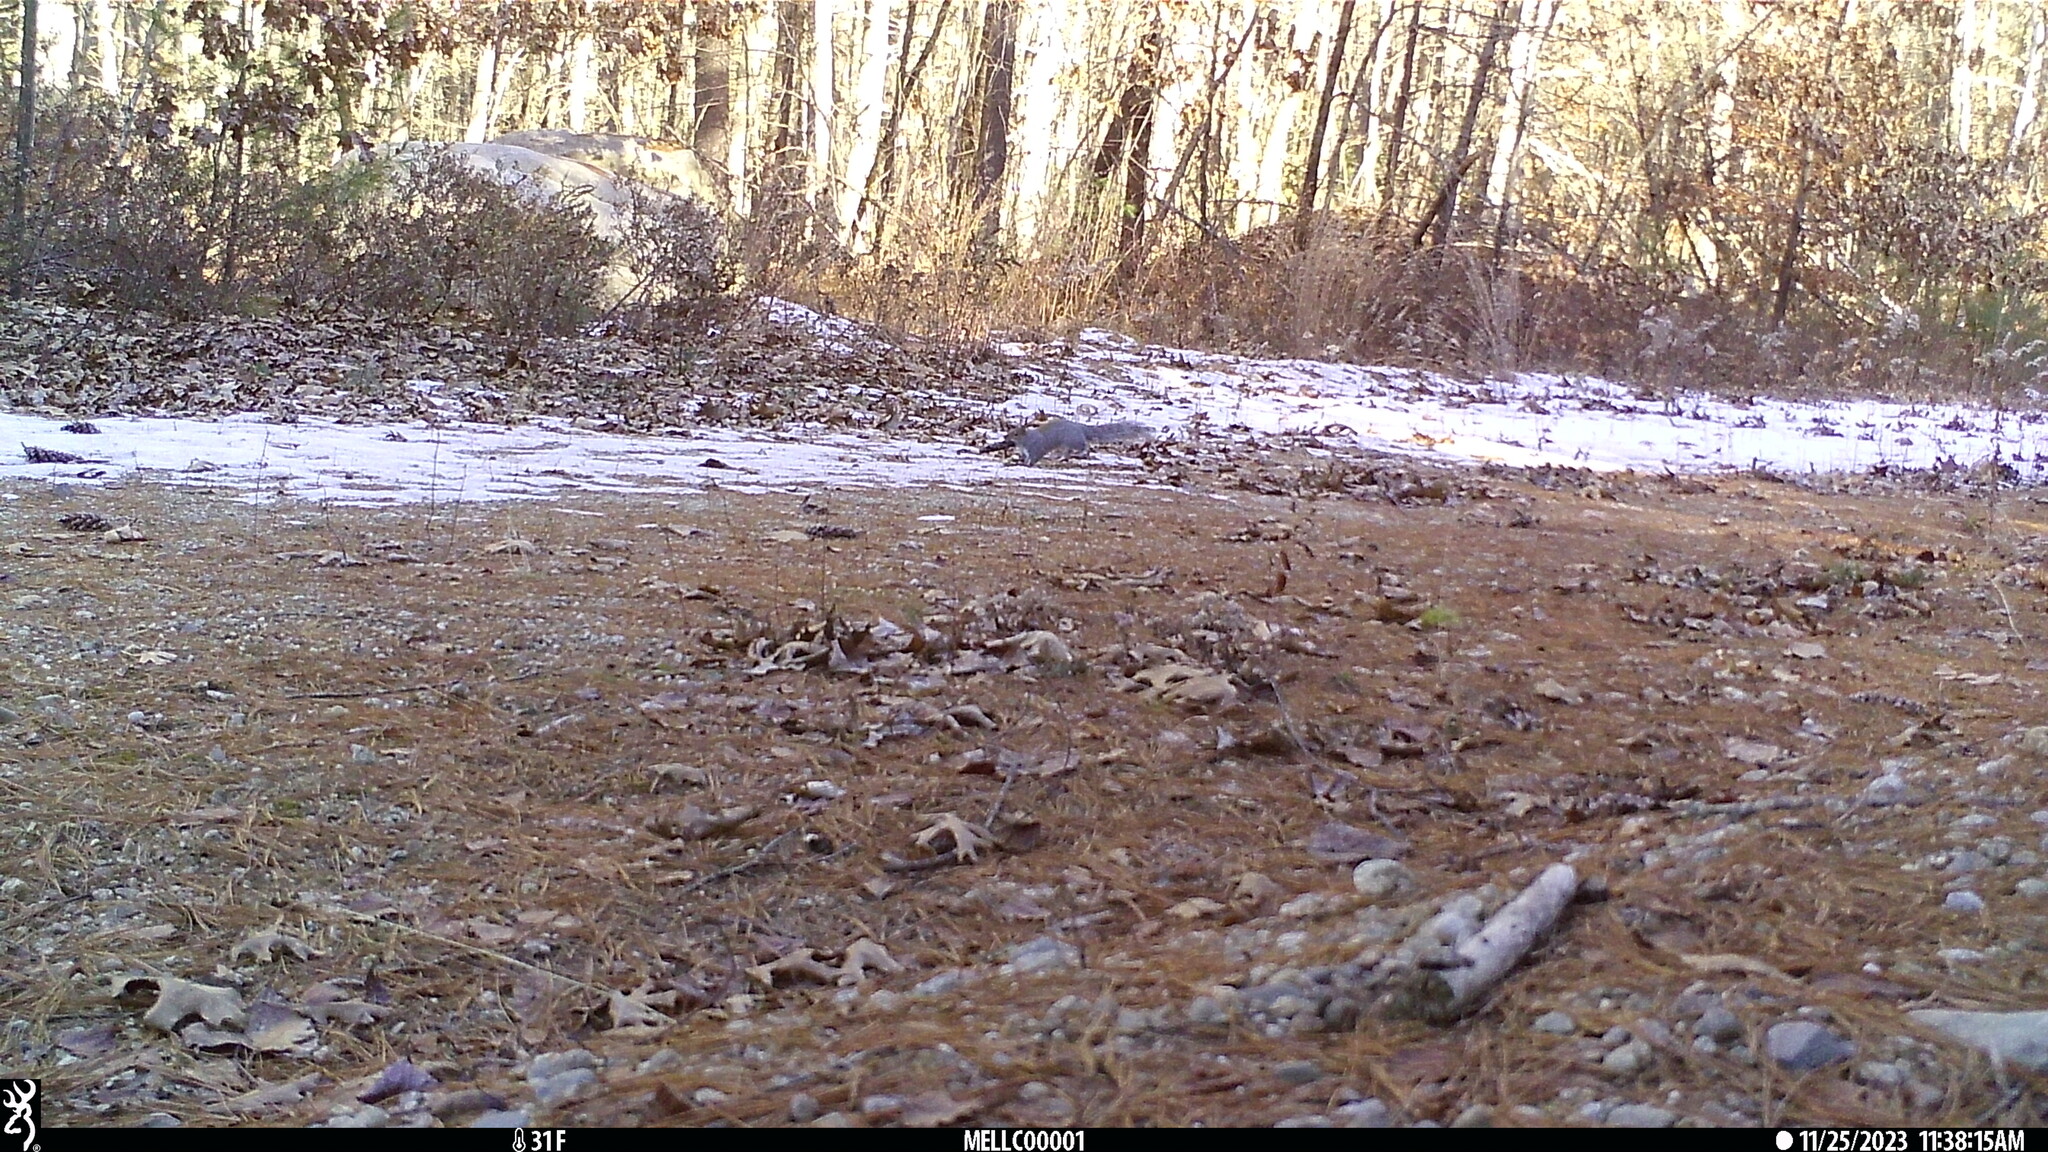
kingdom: Animalia
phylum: Chordata
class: Mammalia
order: Rodentia
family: Sciuridae
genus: Sciurus
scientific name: Sciurus carolinensis
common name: Eastern gray squirrel
